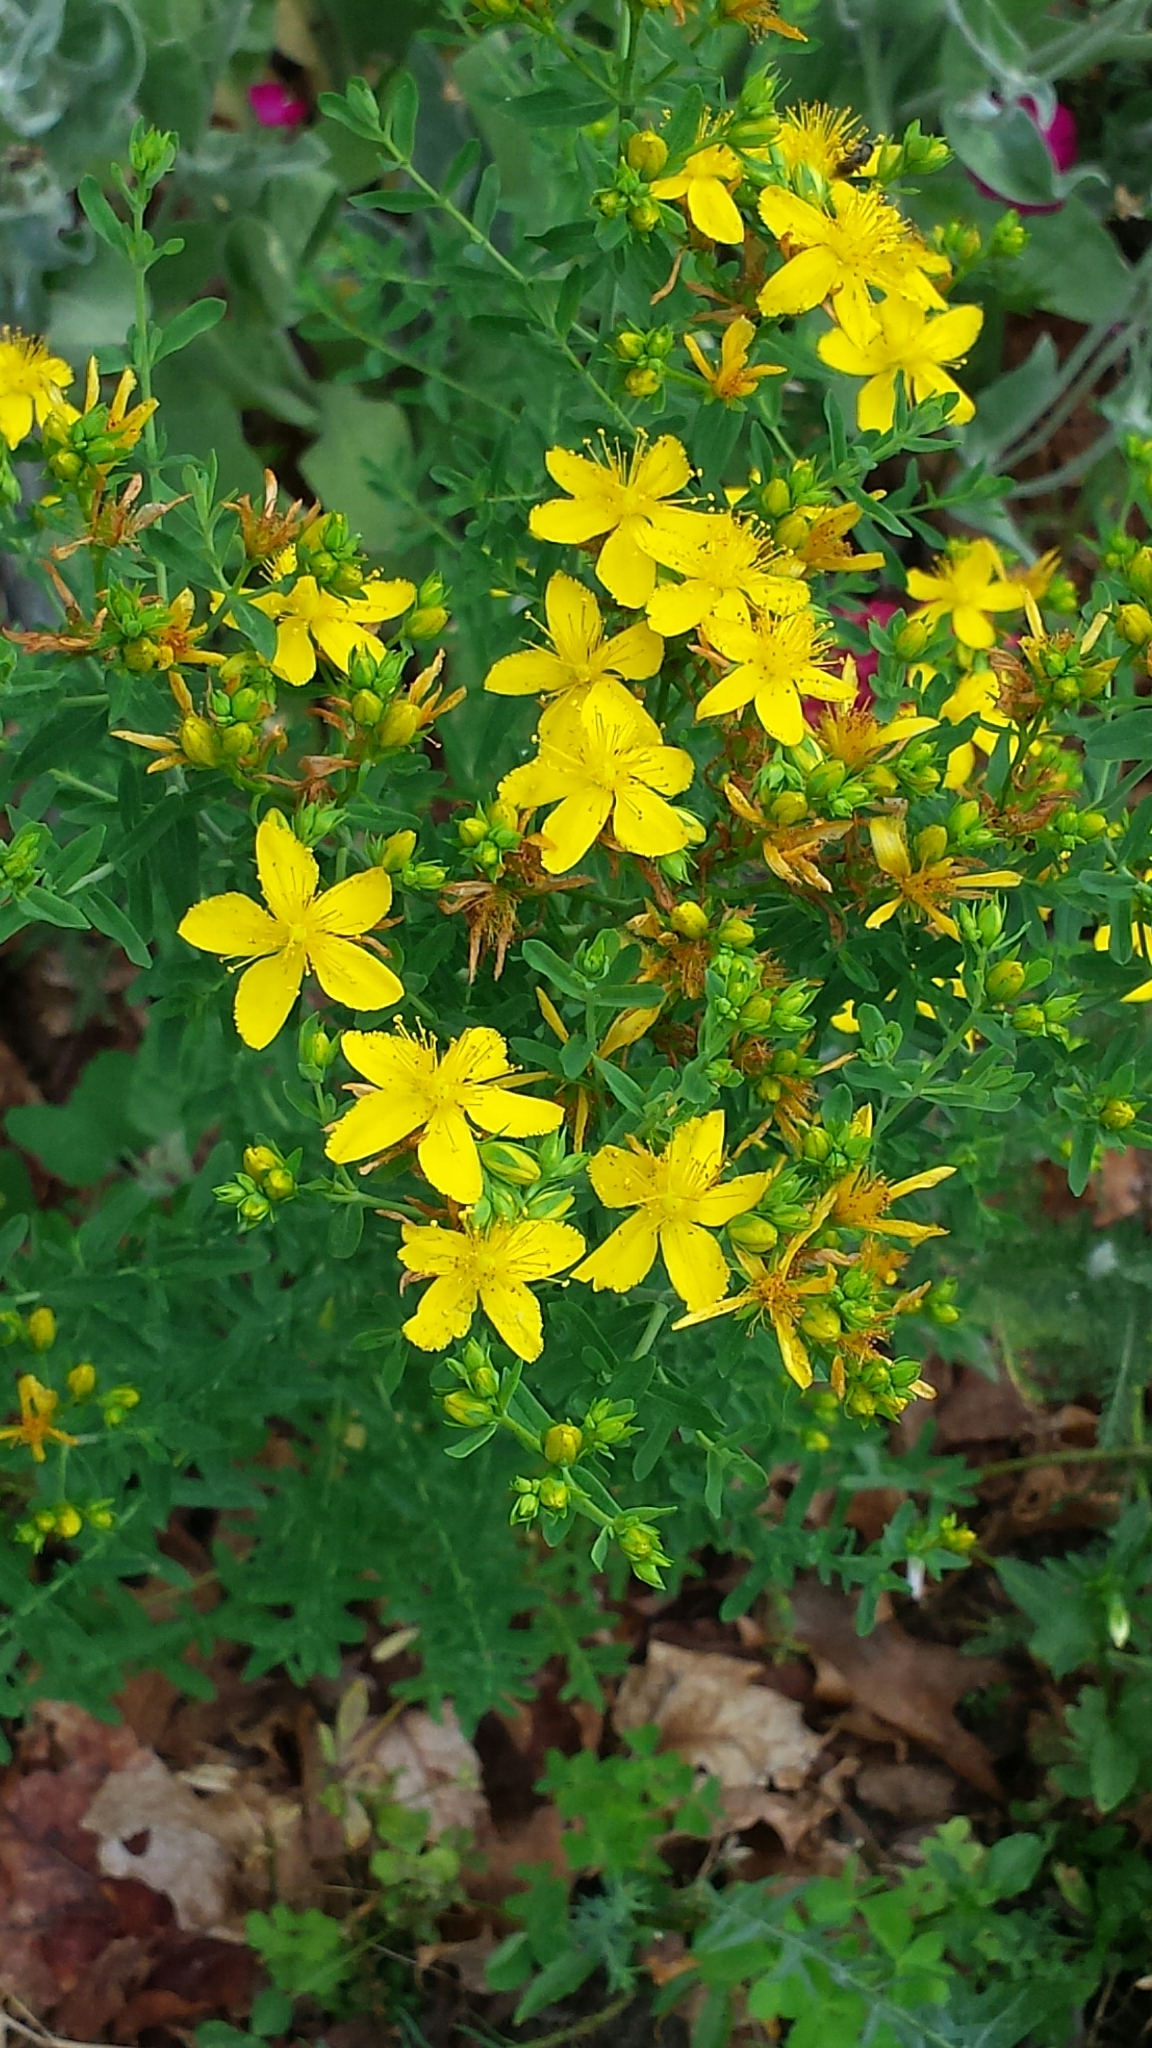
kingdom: Plantae
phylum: Tracheophyta
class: Magnoliopsida
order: Malpighiales
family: Hypericaceae
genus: Hypericum
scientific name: Hypericum perforatum
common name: Common st. johnswort
